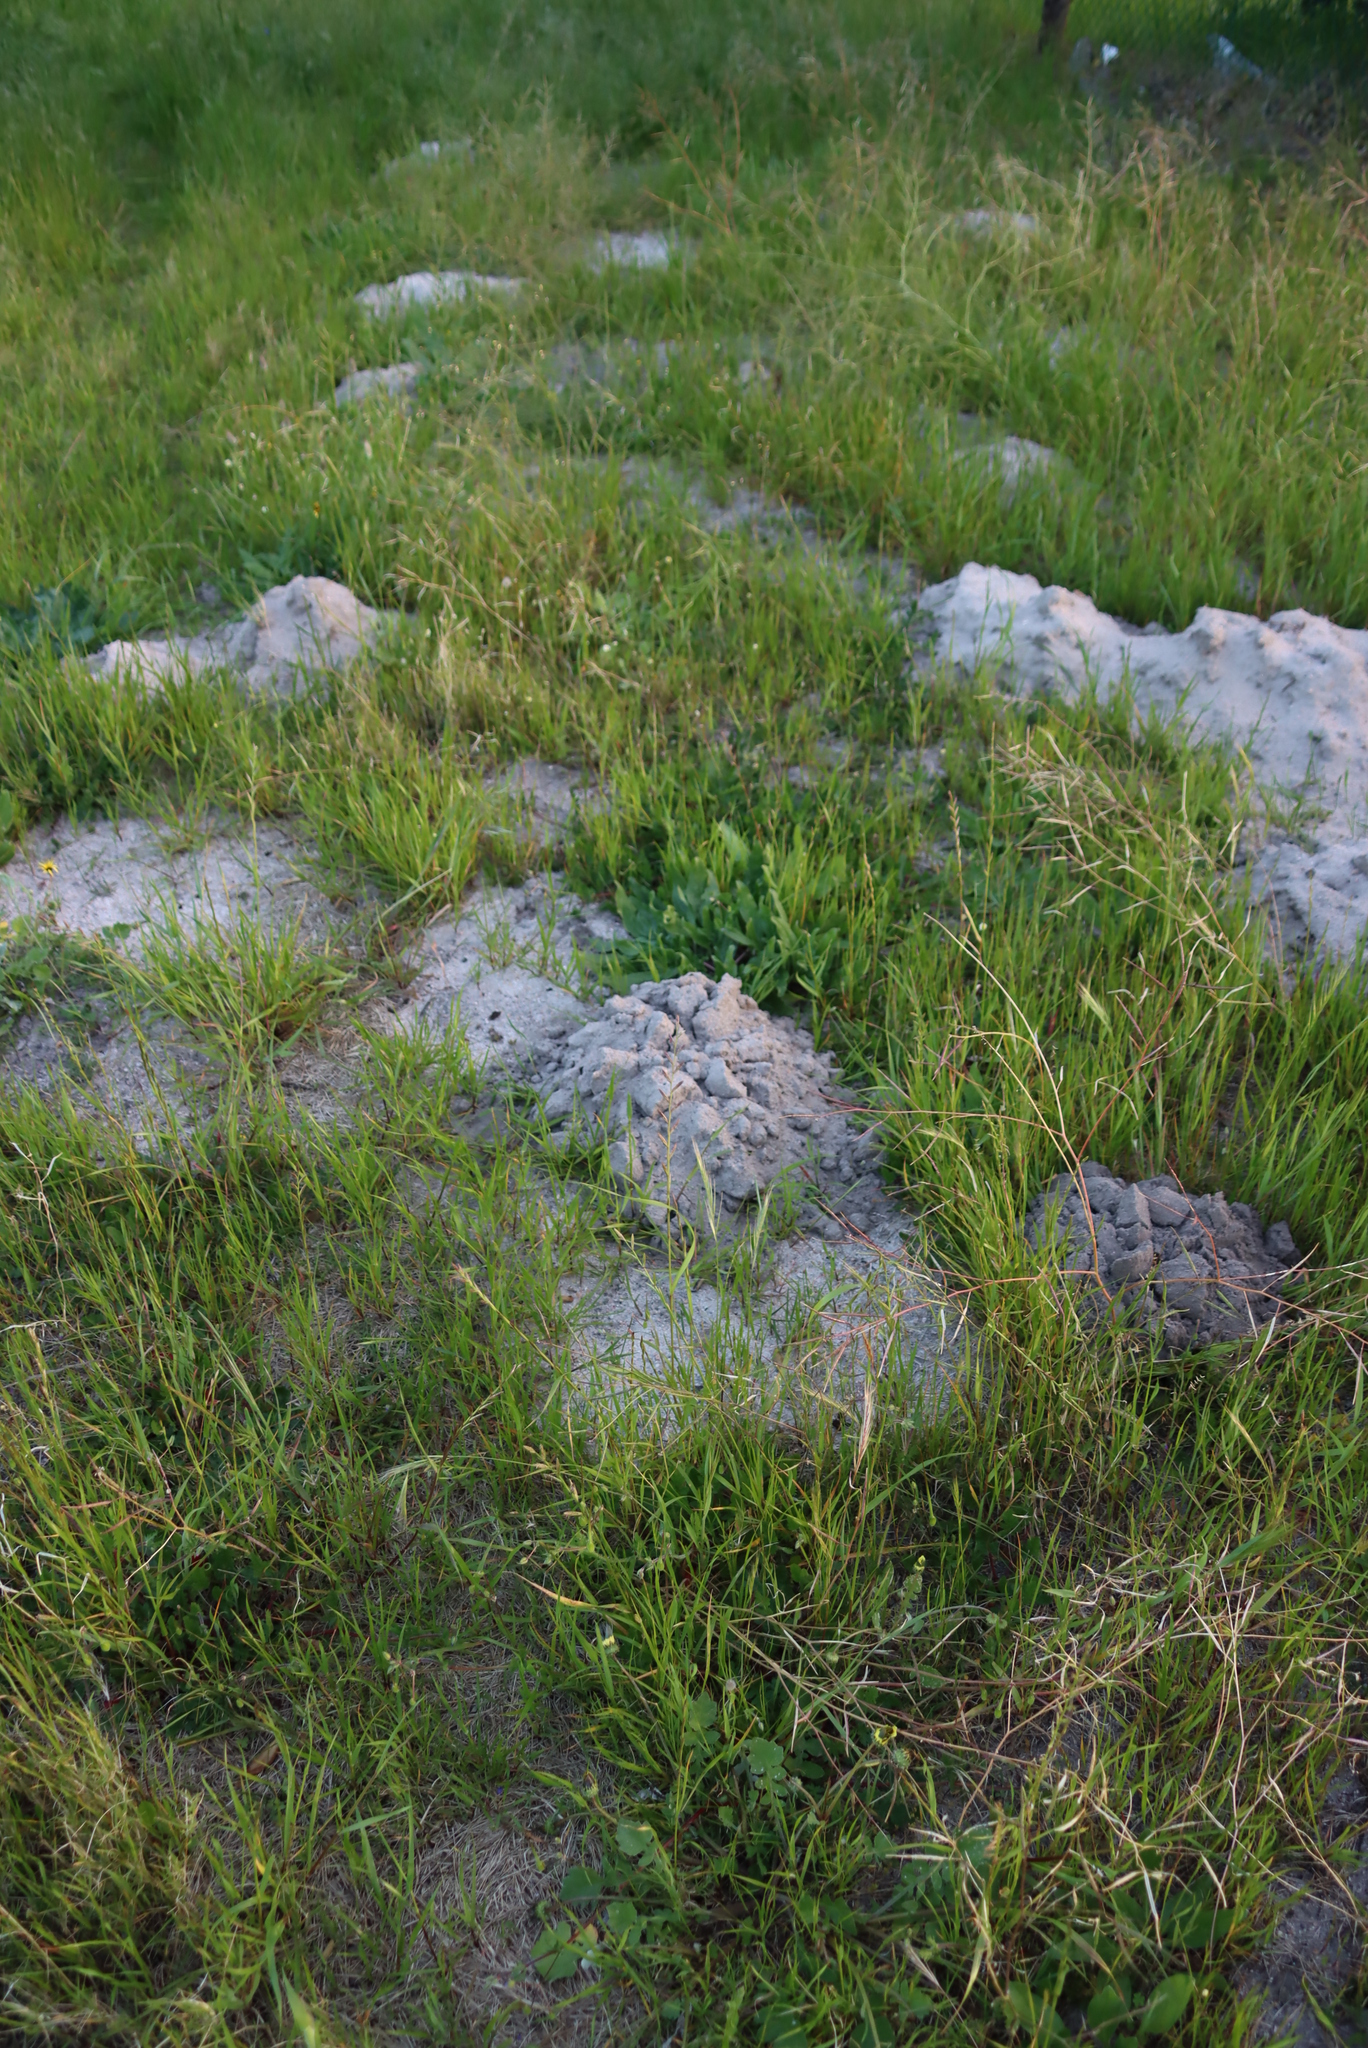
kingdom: Animalia
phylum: Chordata
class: Mammalia
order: Rodentia
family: Bathyergidae
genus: Bathyergus
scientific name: Bathyergus suillus
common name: Cape dune mole rat
